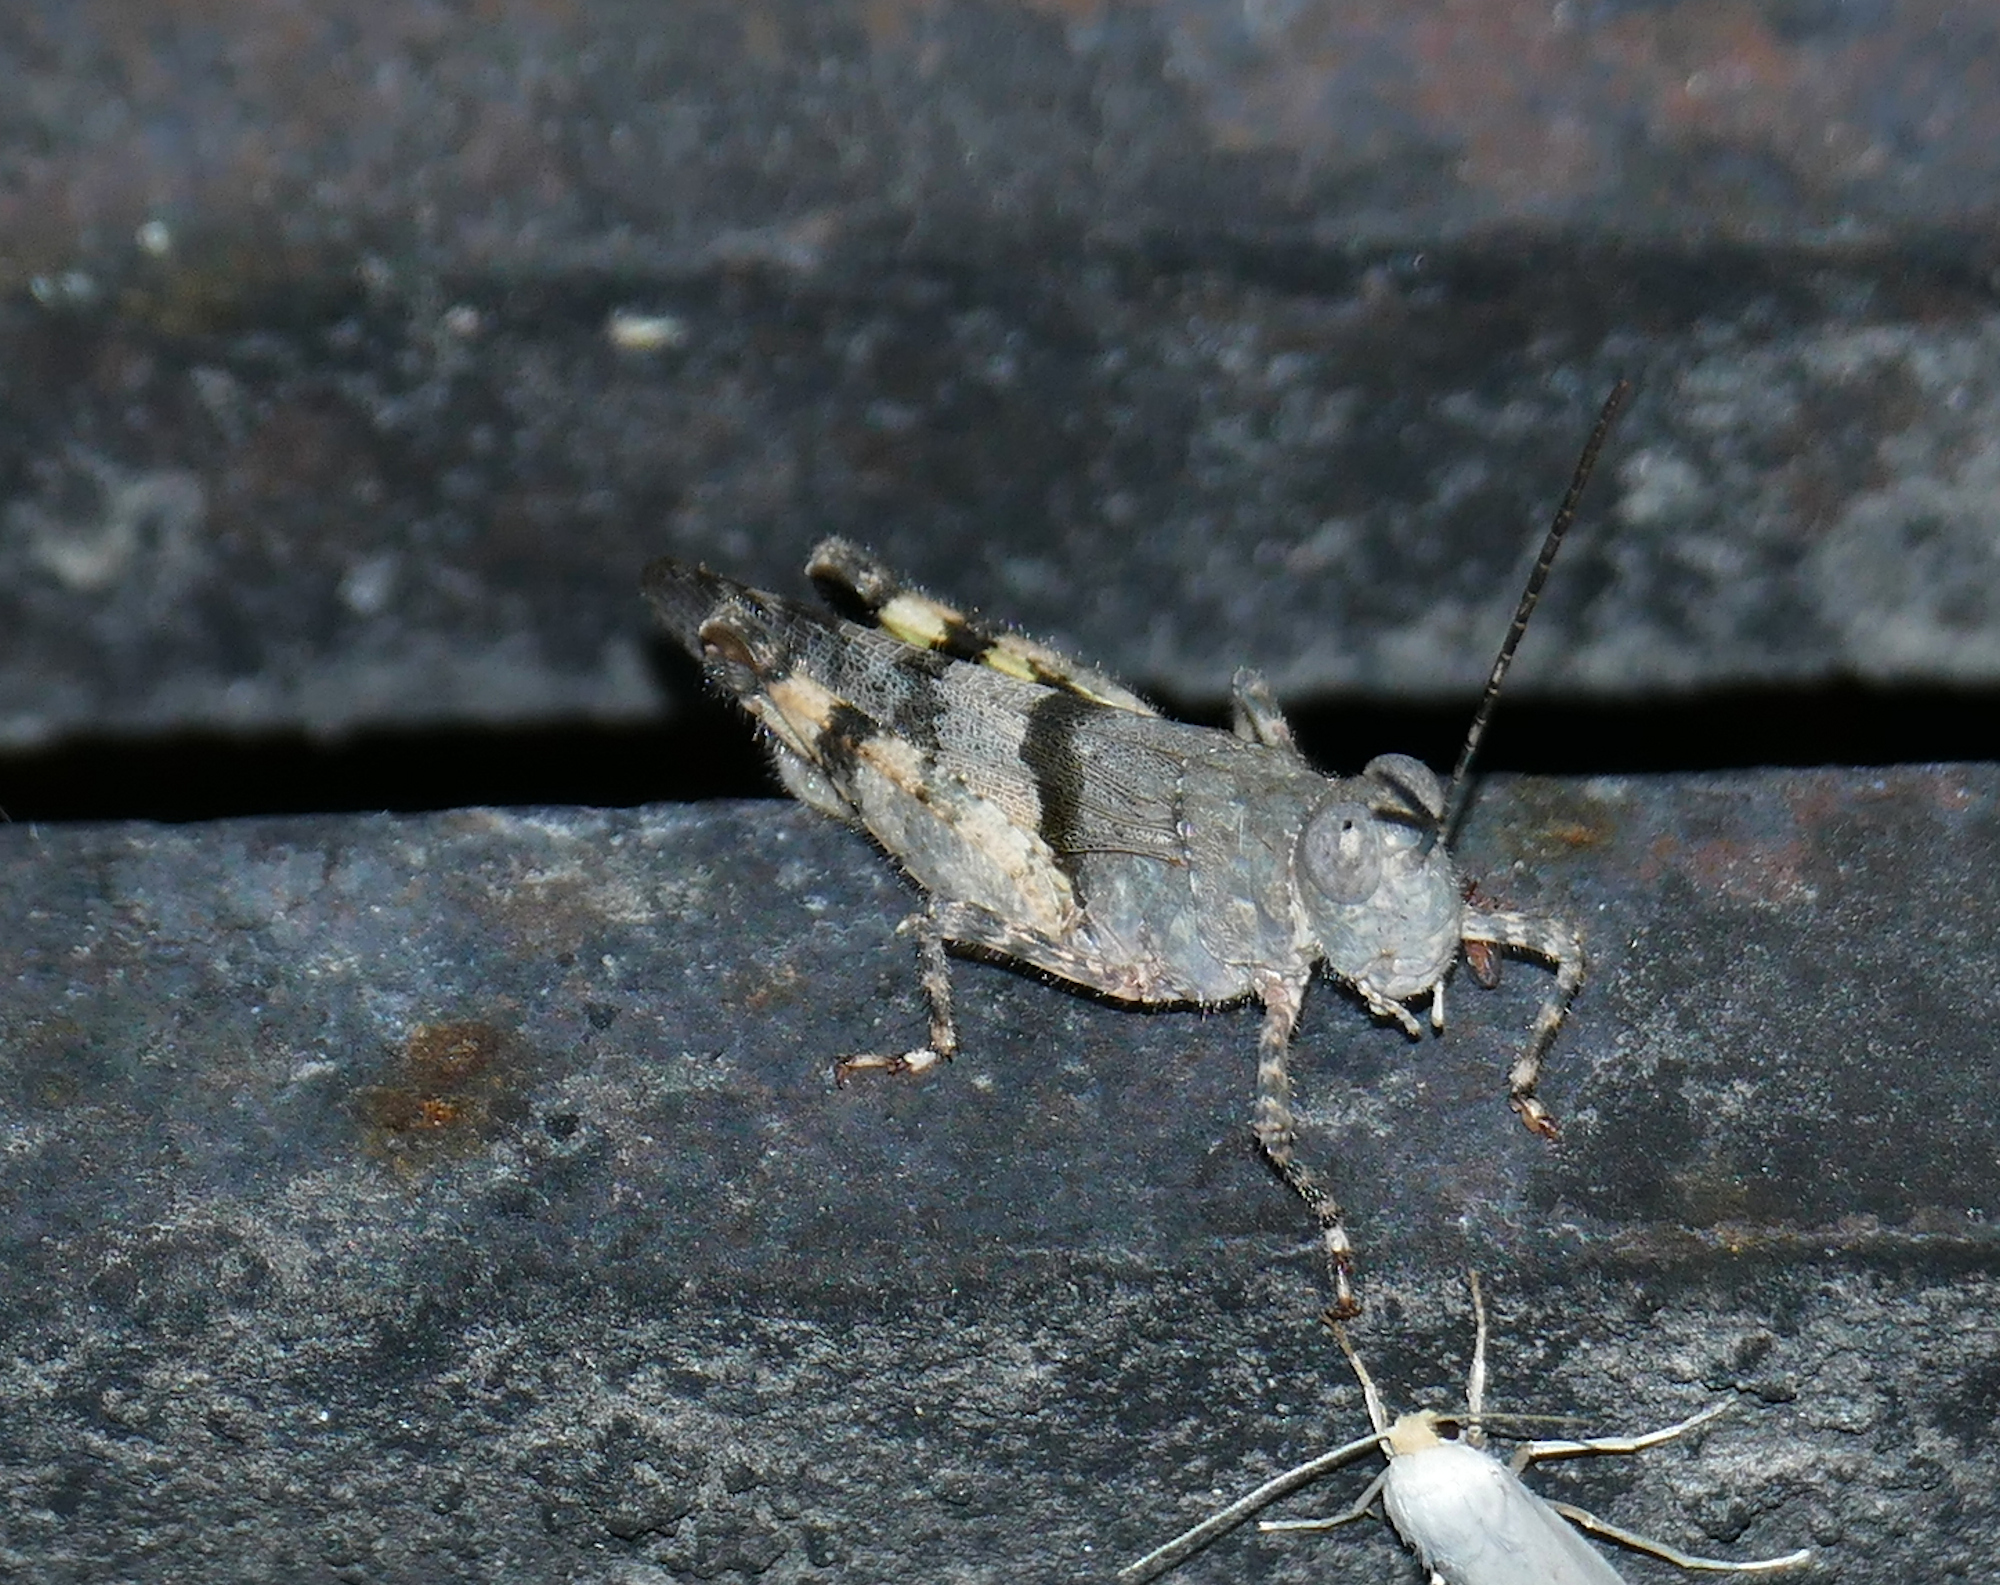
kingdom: Animalia
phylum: Arthropoda
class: Insecta
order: Orthoptera
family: Acrididae
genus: Heliastus
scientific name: Heliastus benjamini
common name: Arroyo grasshopper
